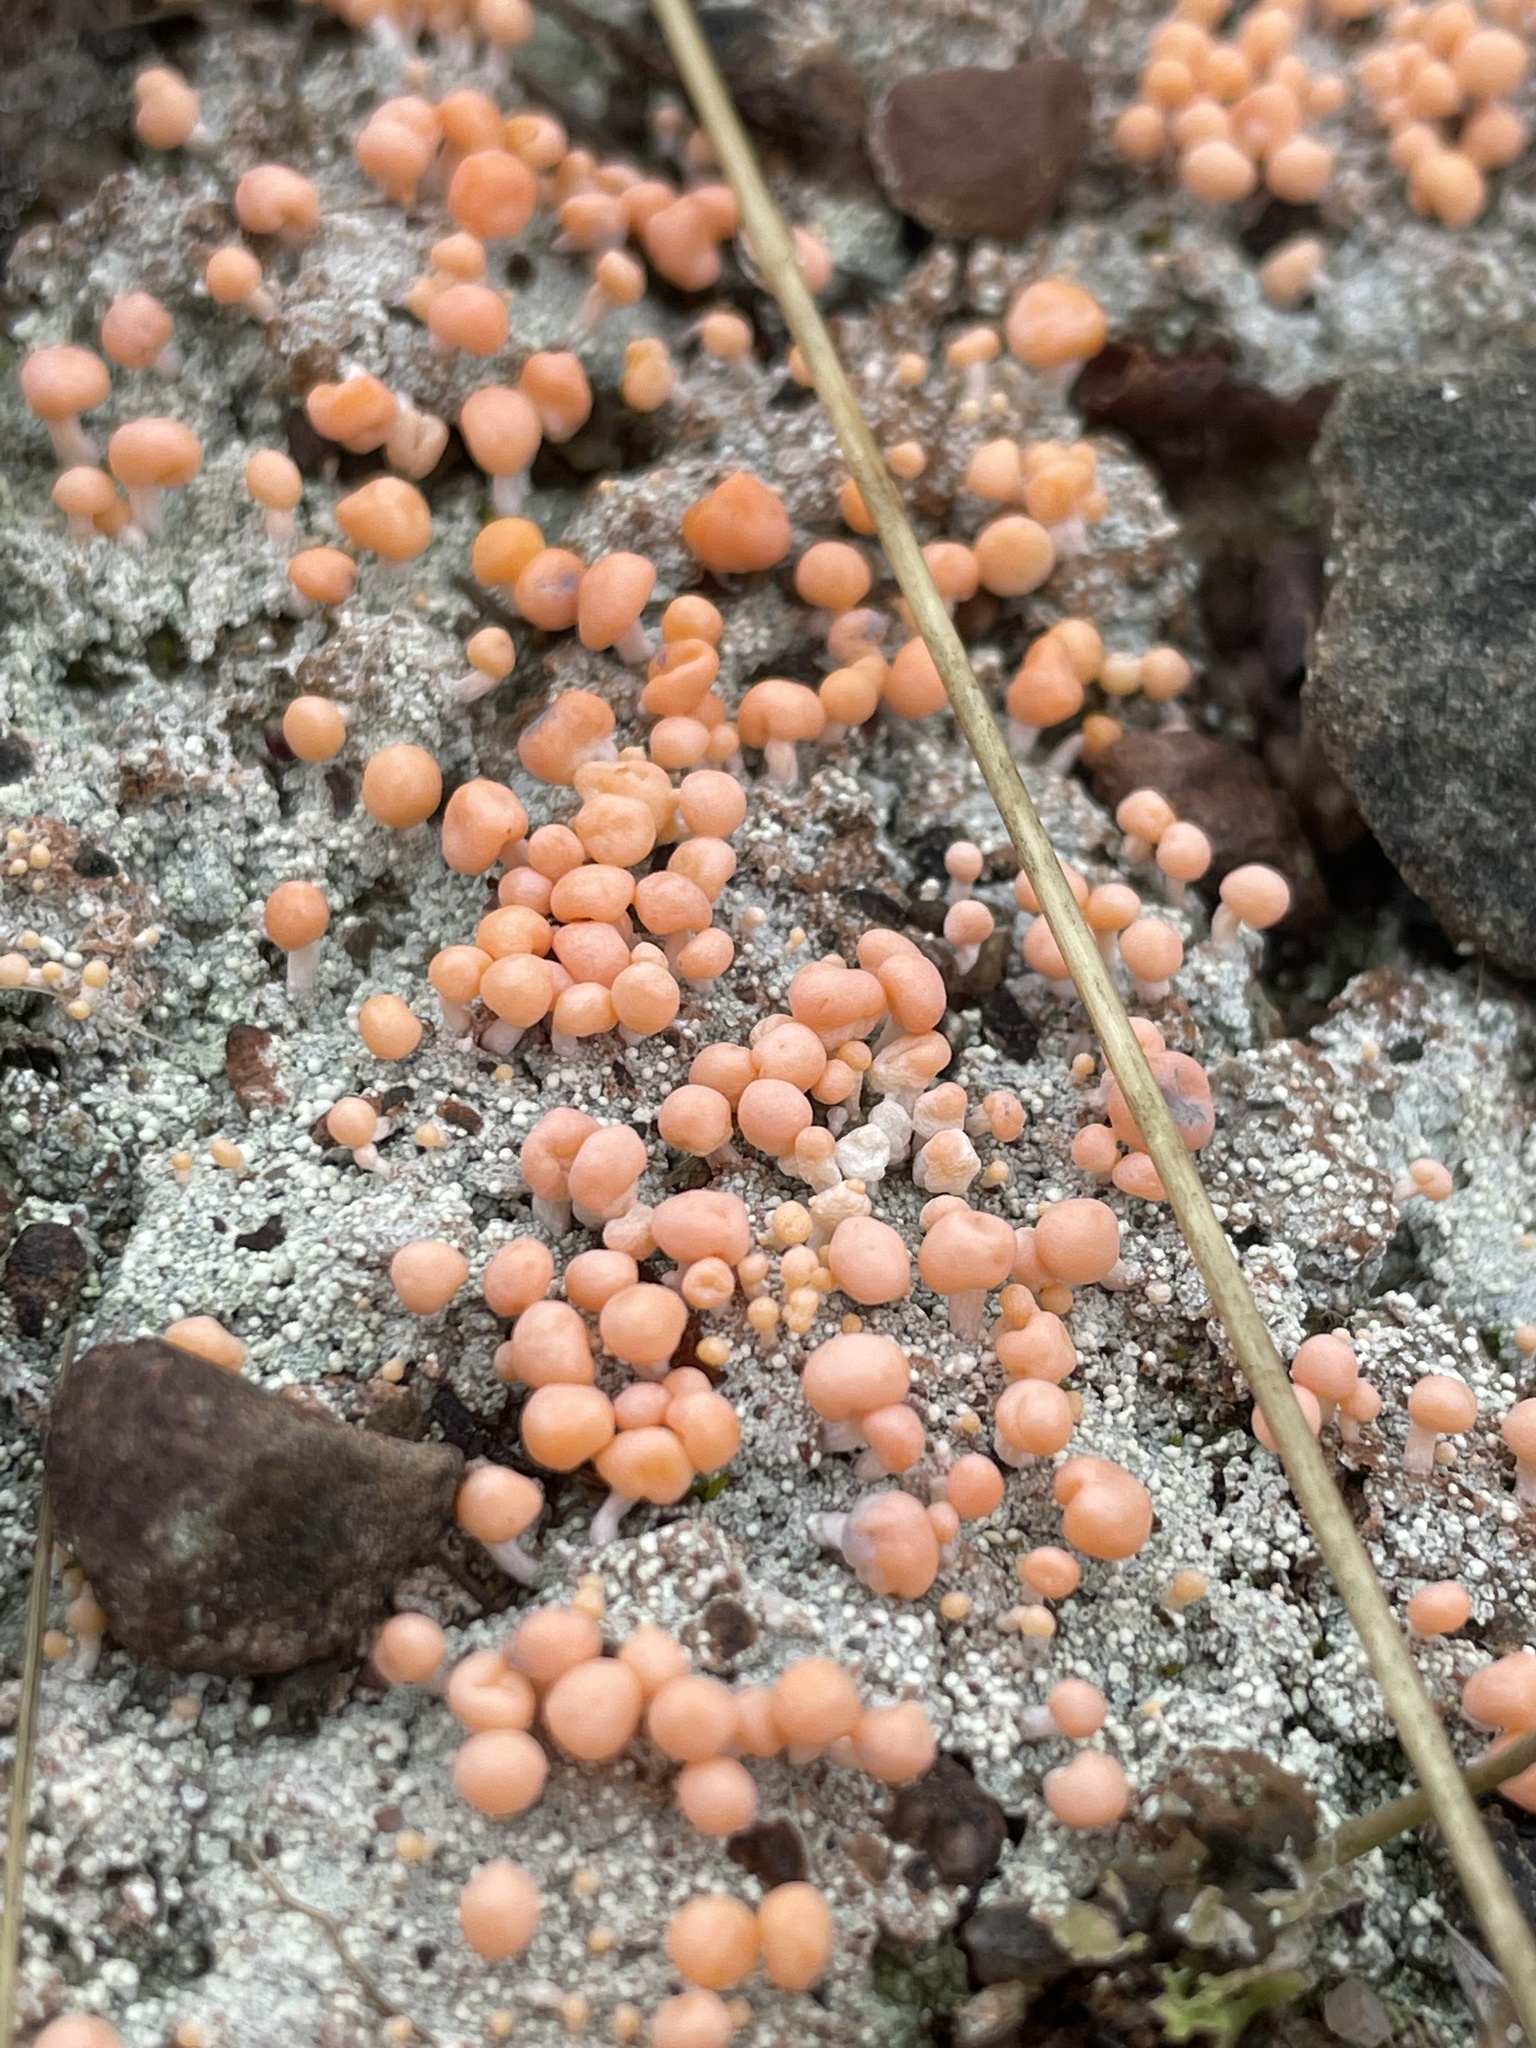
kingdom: Fungi
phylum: Ascomycota
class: Lecanoromycetes
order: Pertusariales
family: Icmadophilaceae
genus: Dibaeis
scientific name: Dibaeis baeomyces
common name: Pink earth lichen
